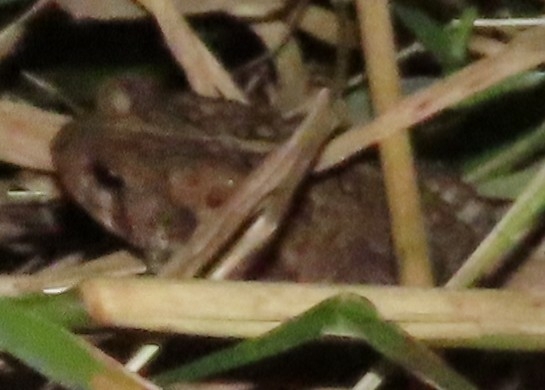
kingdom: Animalia
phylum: Chordata
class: Amphibia
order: Anura
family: Bufonidae
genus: Anaxyrus
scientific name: Anaxyrus americanus
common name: American toad
